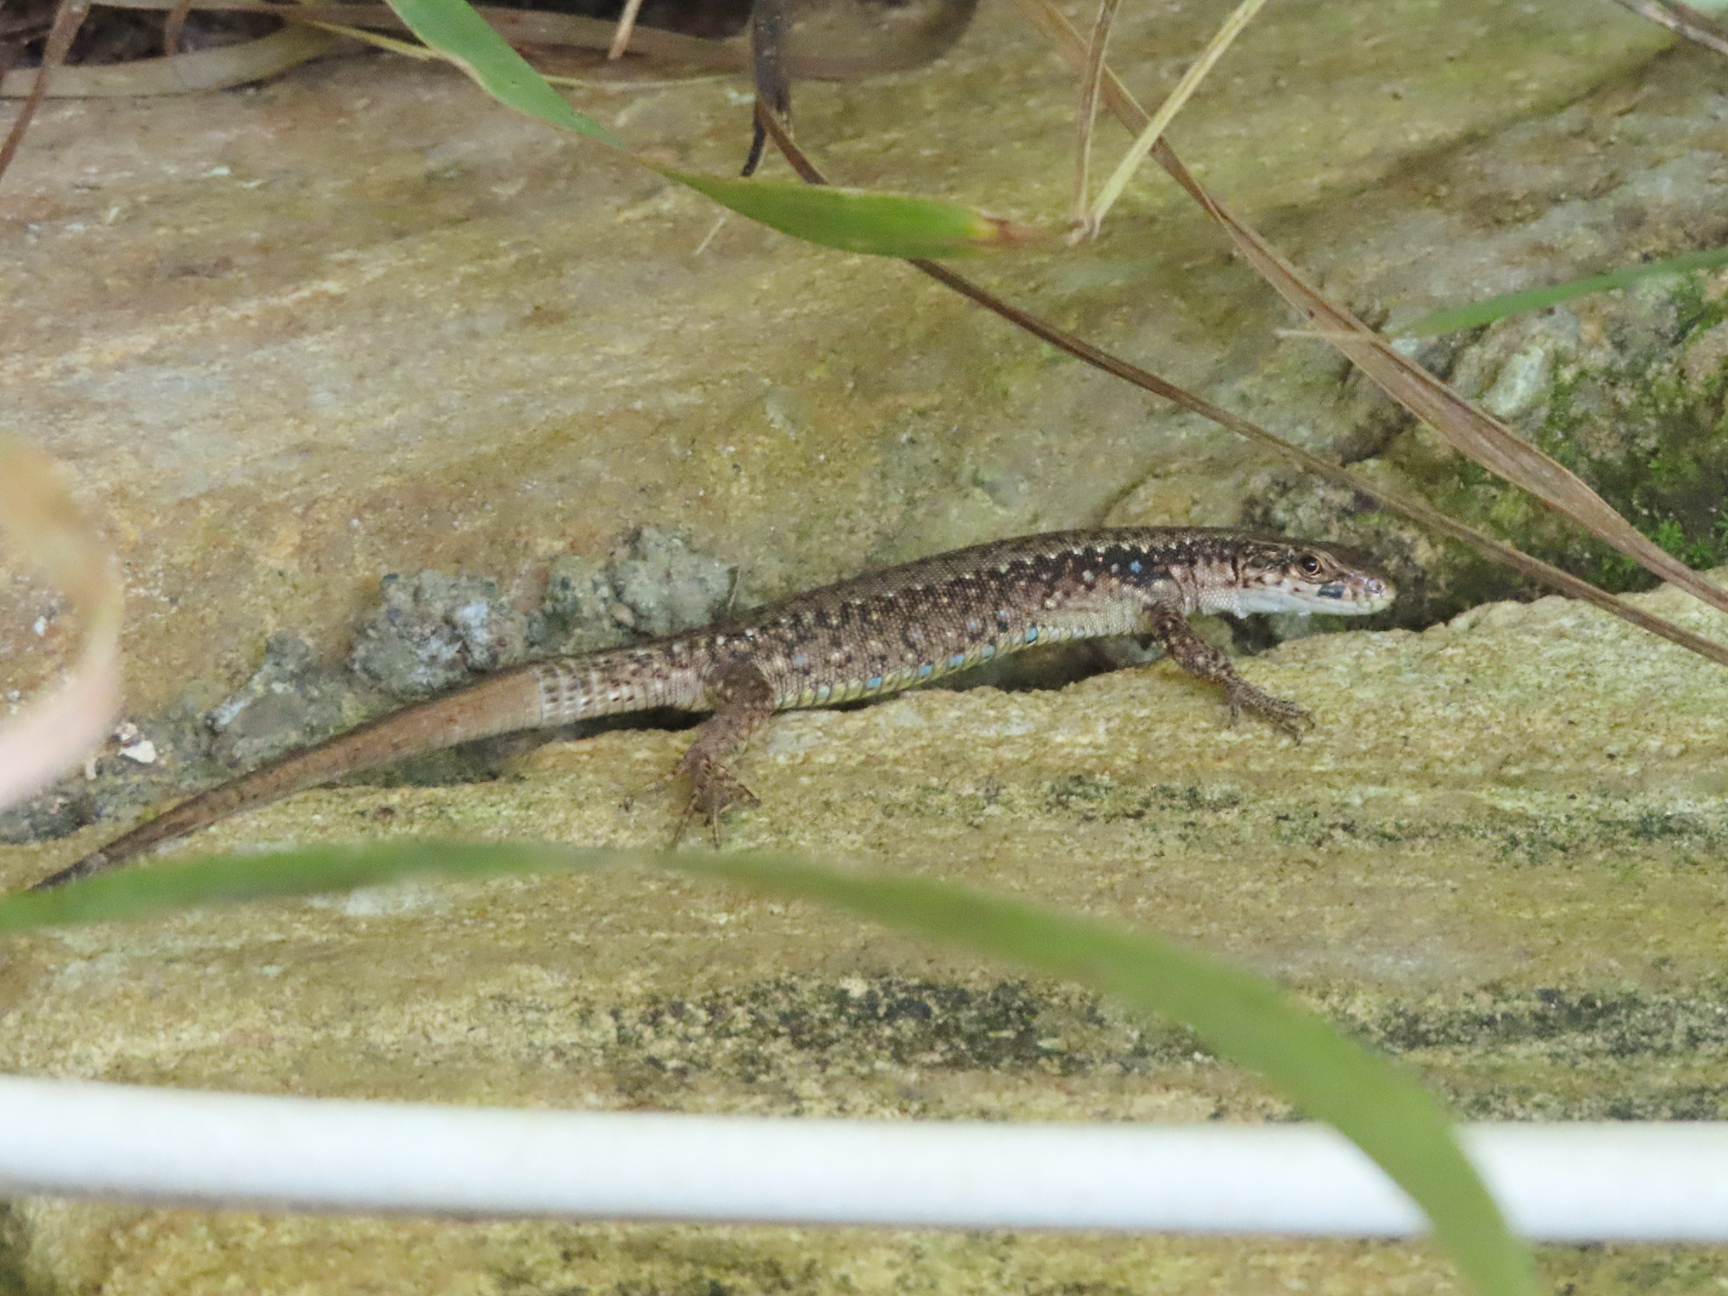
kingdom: Animalia
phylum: Chordata
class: Squamata
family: Lacertidae
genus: Darevskia
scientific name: Darevskia armeniaca
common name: Armenian lizard
